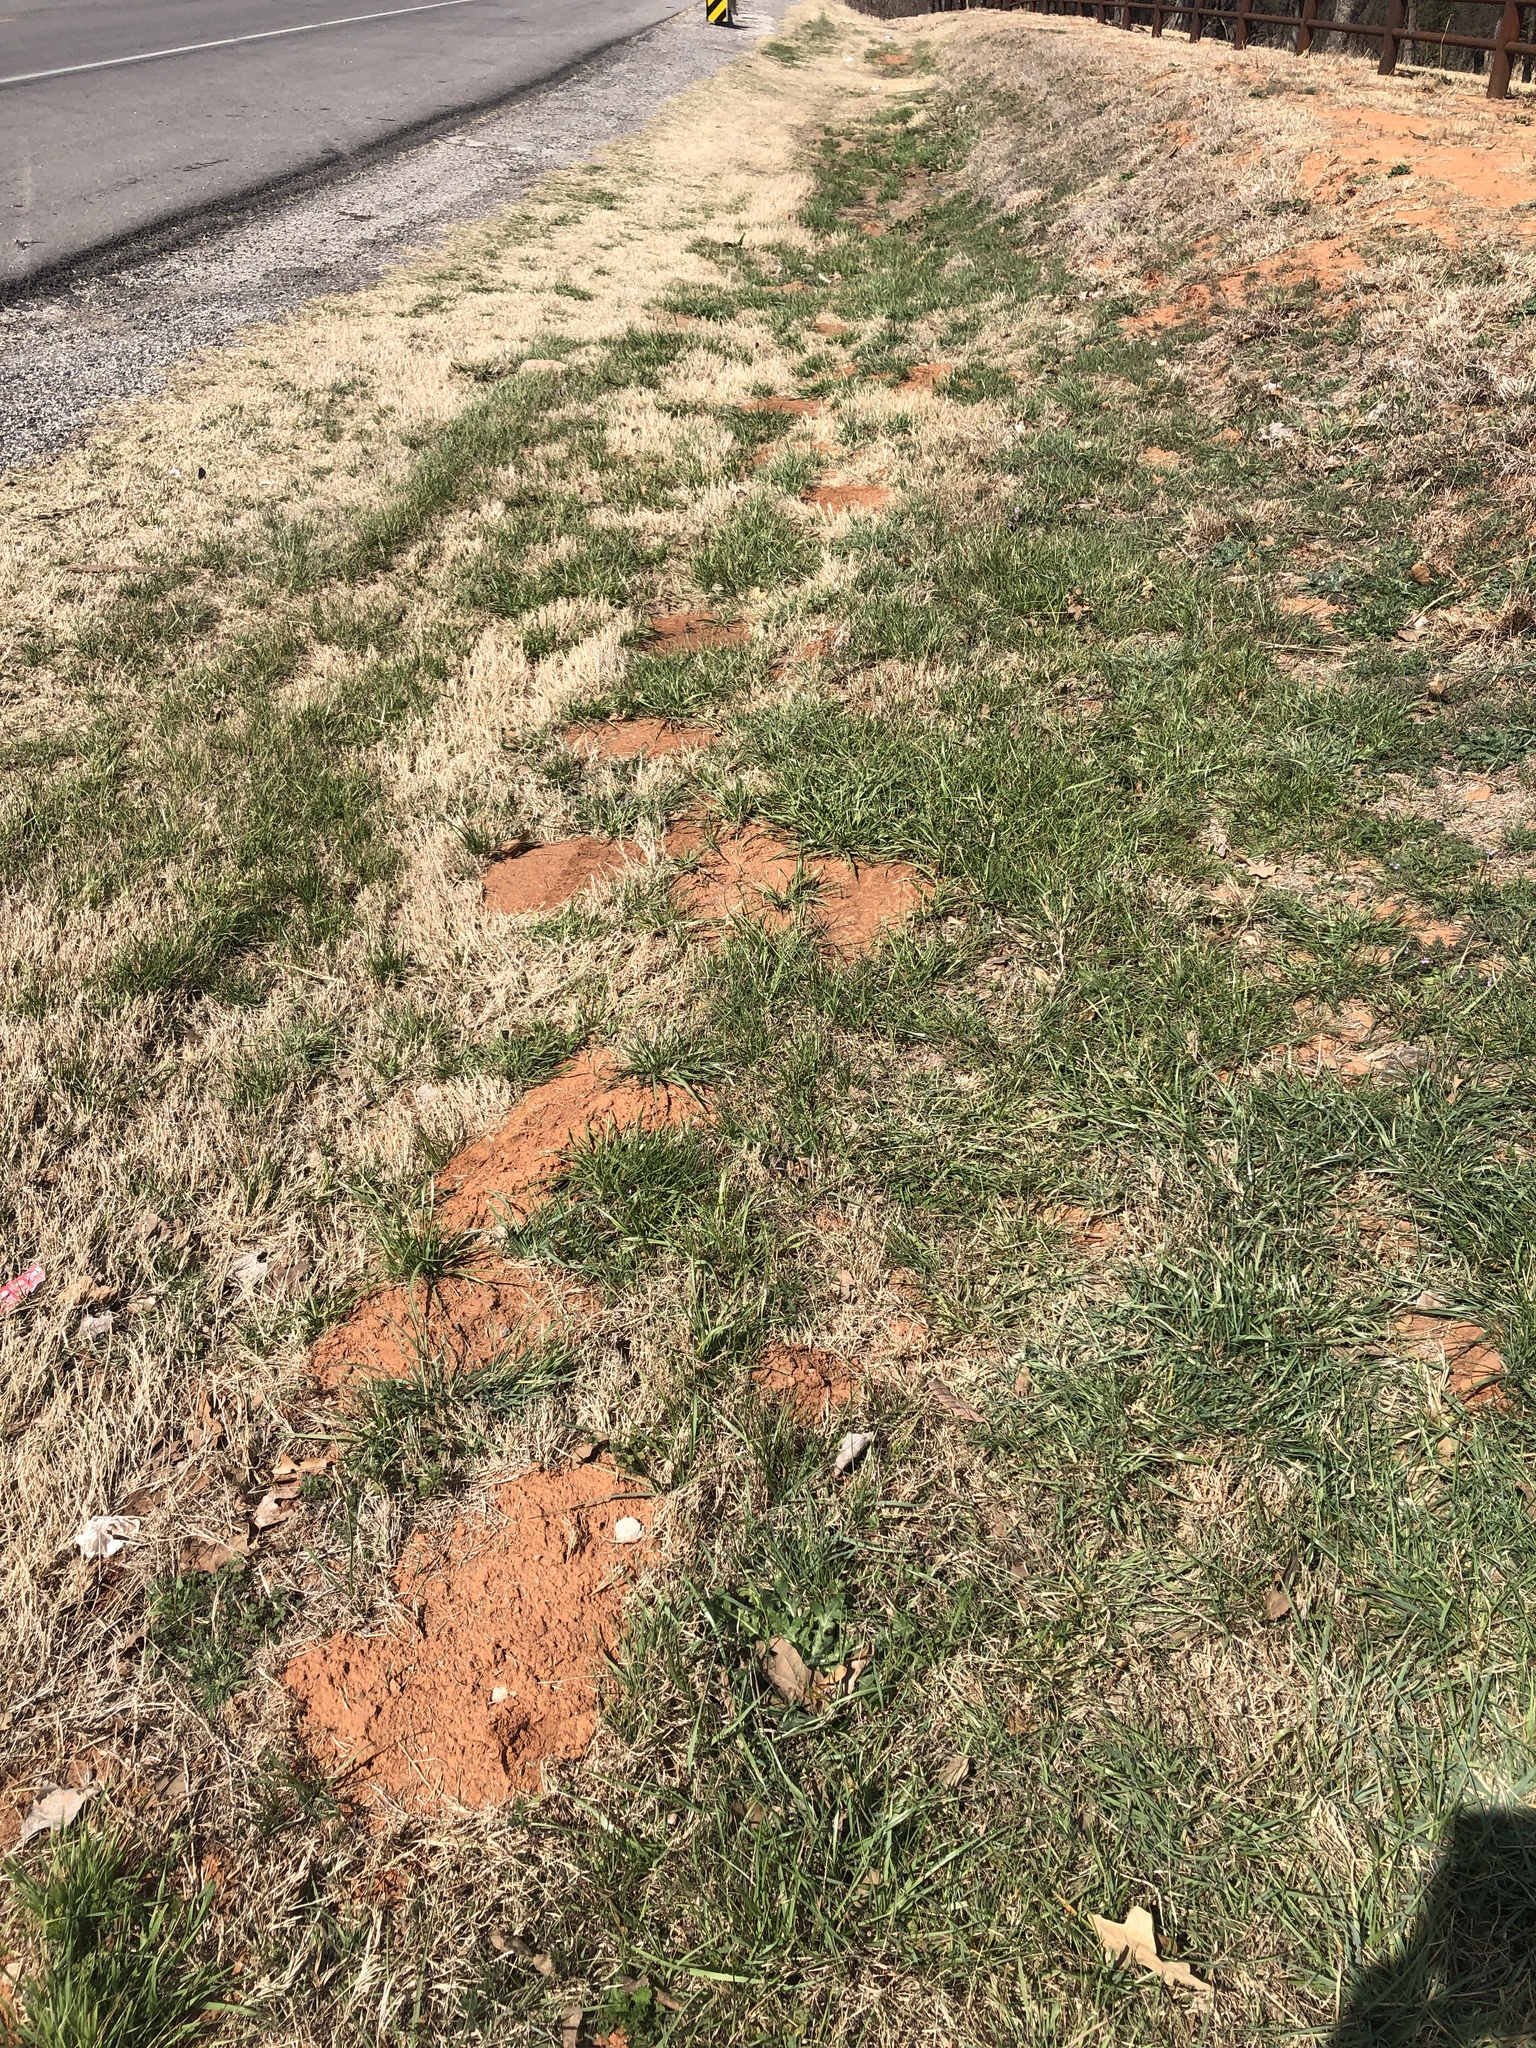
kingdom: Animalia
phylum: Chordata
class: Mammalia
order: Rodentia
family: Geomyidae
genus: Geomys
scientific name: Geomys bursarius
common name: Plains pocket gopher
